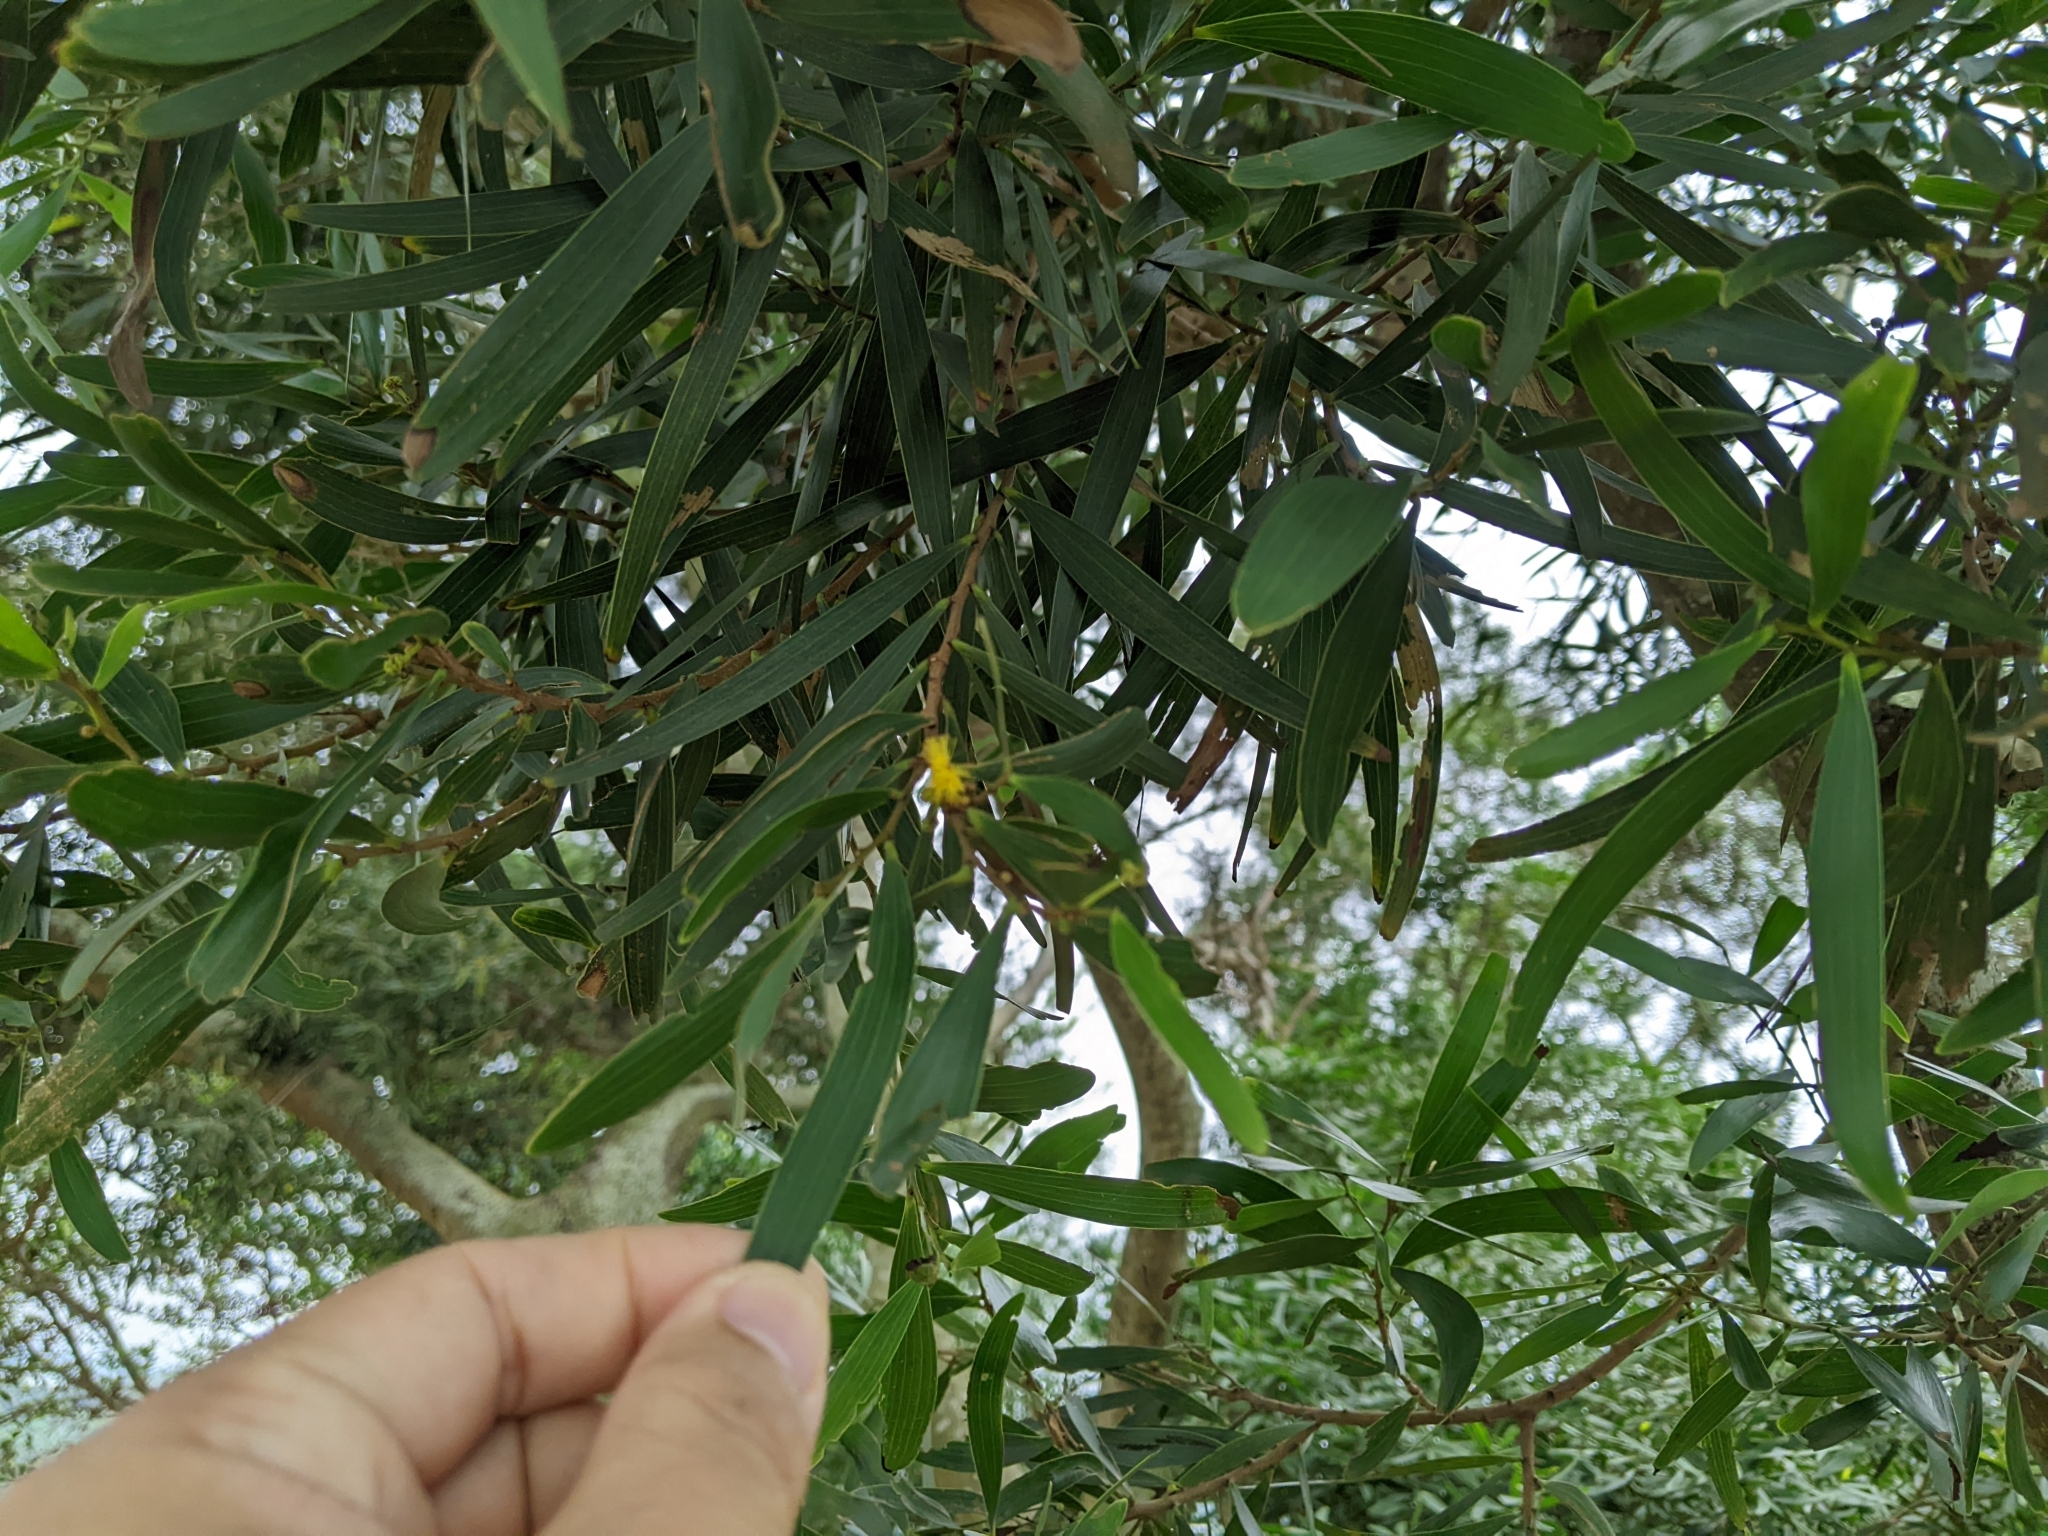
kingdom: Plantae
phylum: Tracheophyta
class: Magnoliopsida
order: Fabales
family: Fabaceae
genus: Acacia
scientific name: Acacia confusa
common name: Formosan koa
